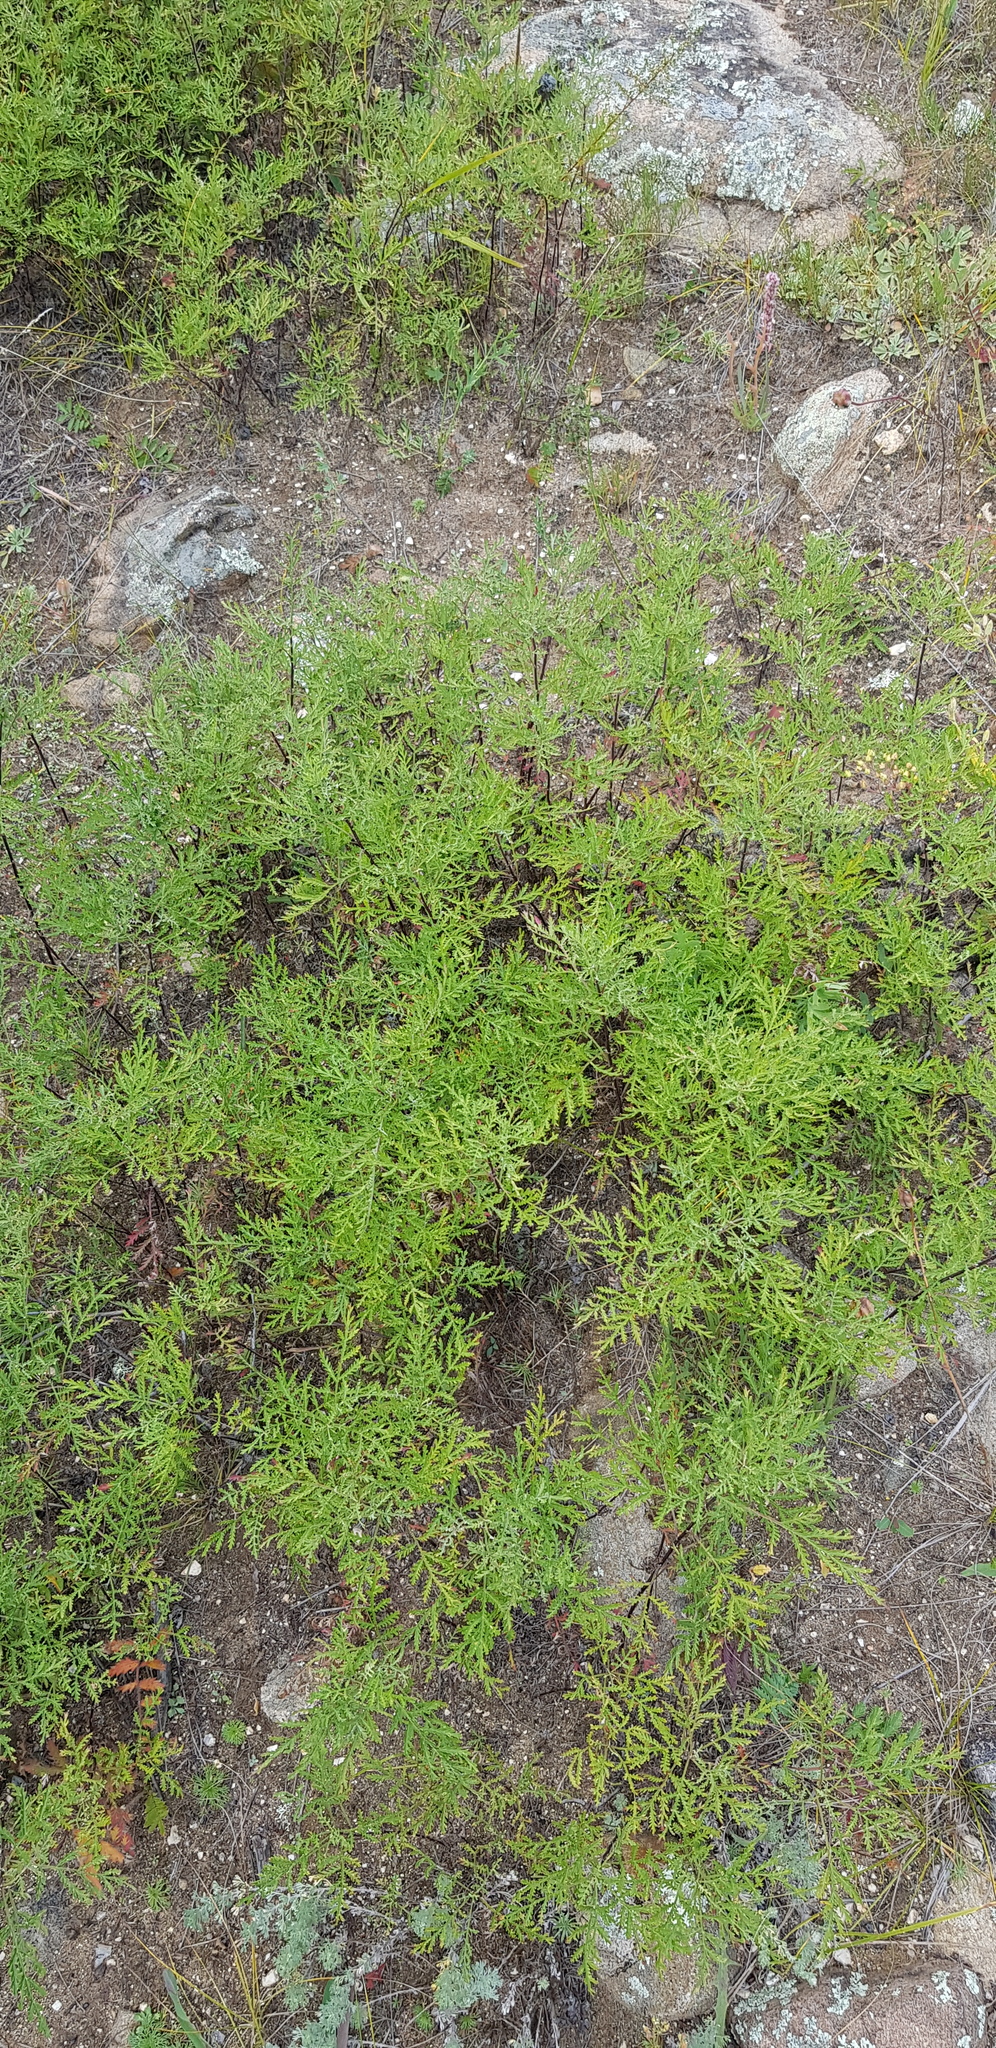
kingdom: Plantae
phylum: Tracheophyta
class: Magnoliopsida
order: Asterales
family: Asteraceae
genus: Artemisia
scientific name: Artemisia gmelinii
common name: Gmelin's wormwood
